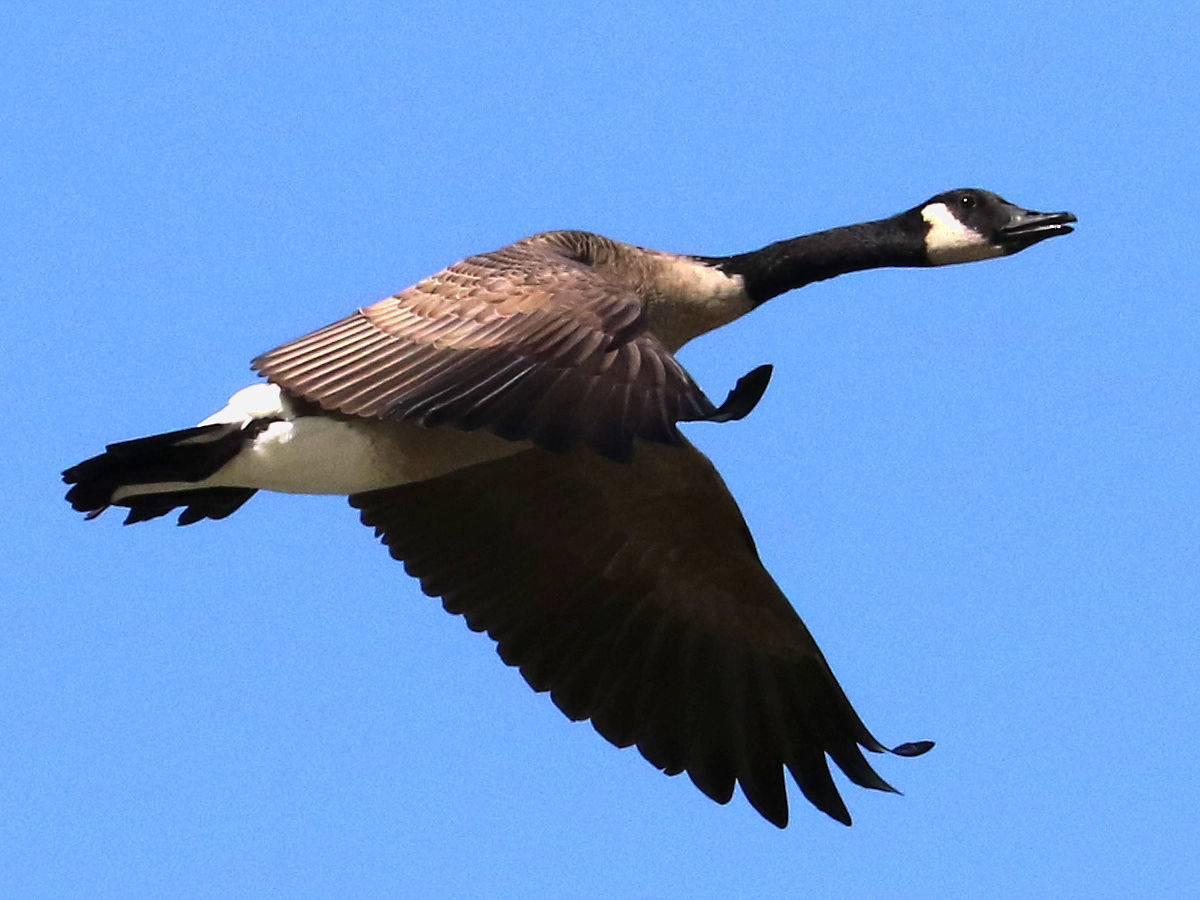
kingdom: Animalia
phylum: Chordata
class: Aves
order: Anseriformes
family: Anatidae
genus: Branta
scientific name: Branta canadensis
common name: Canada goose
